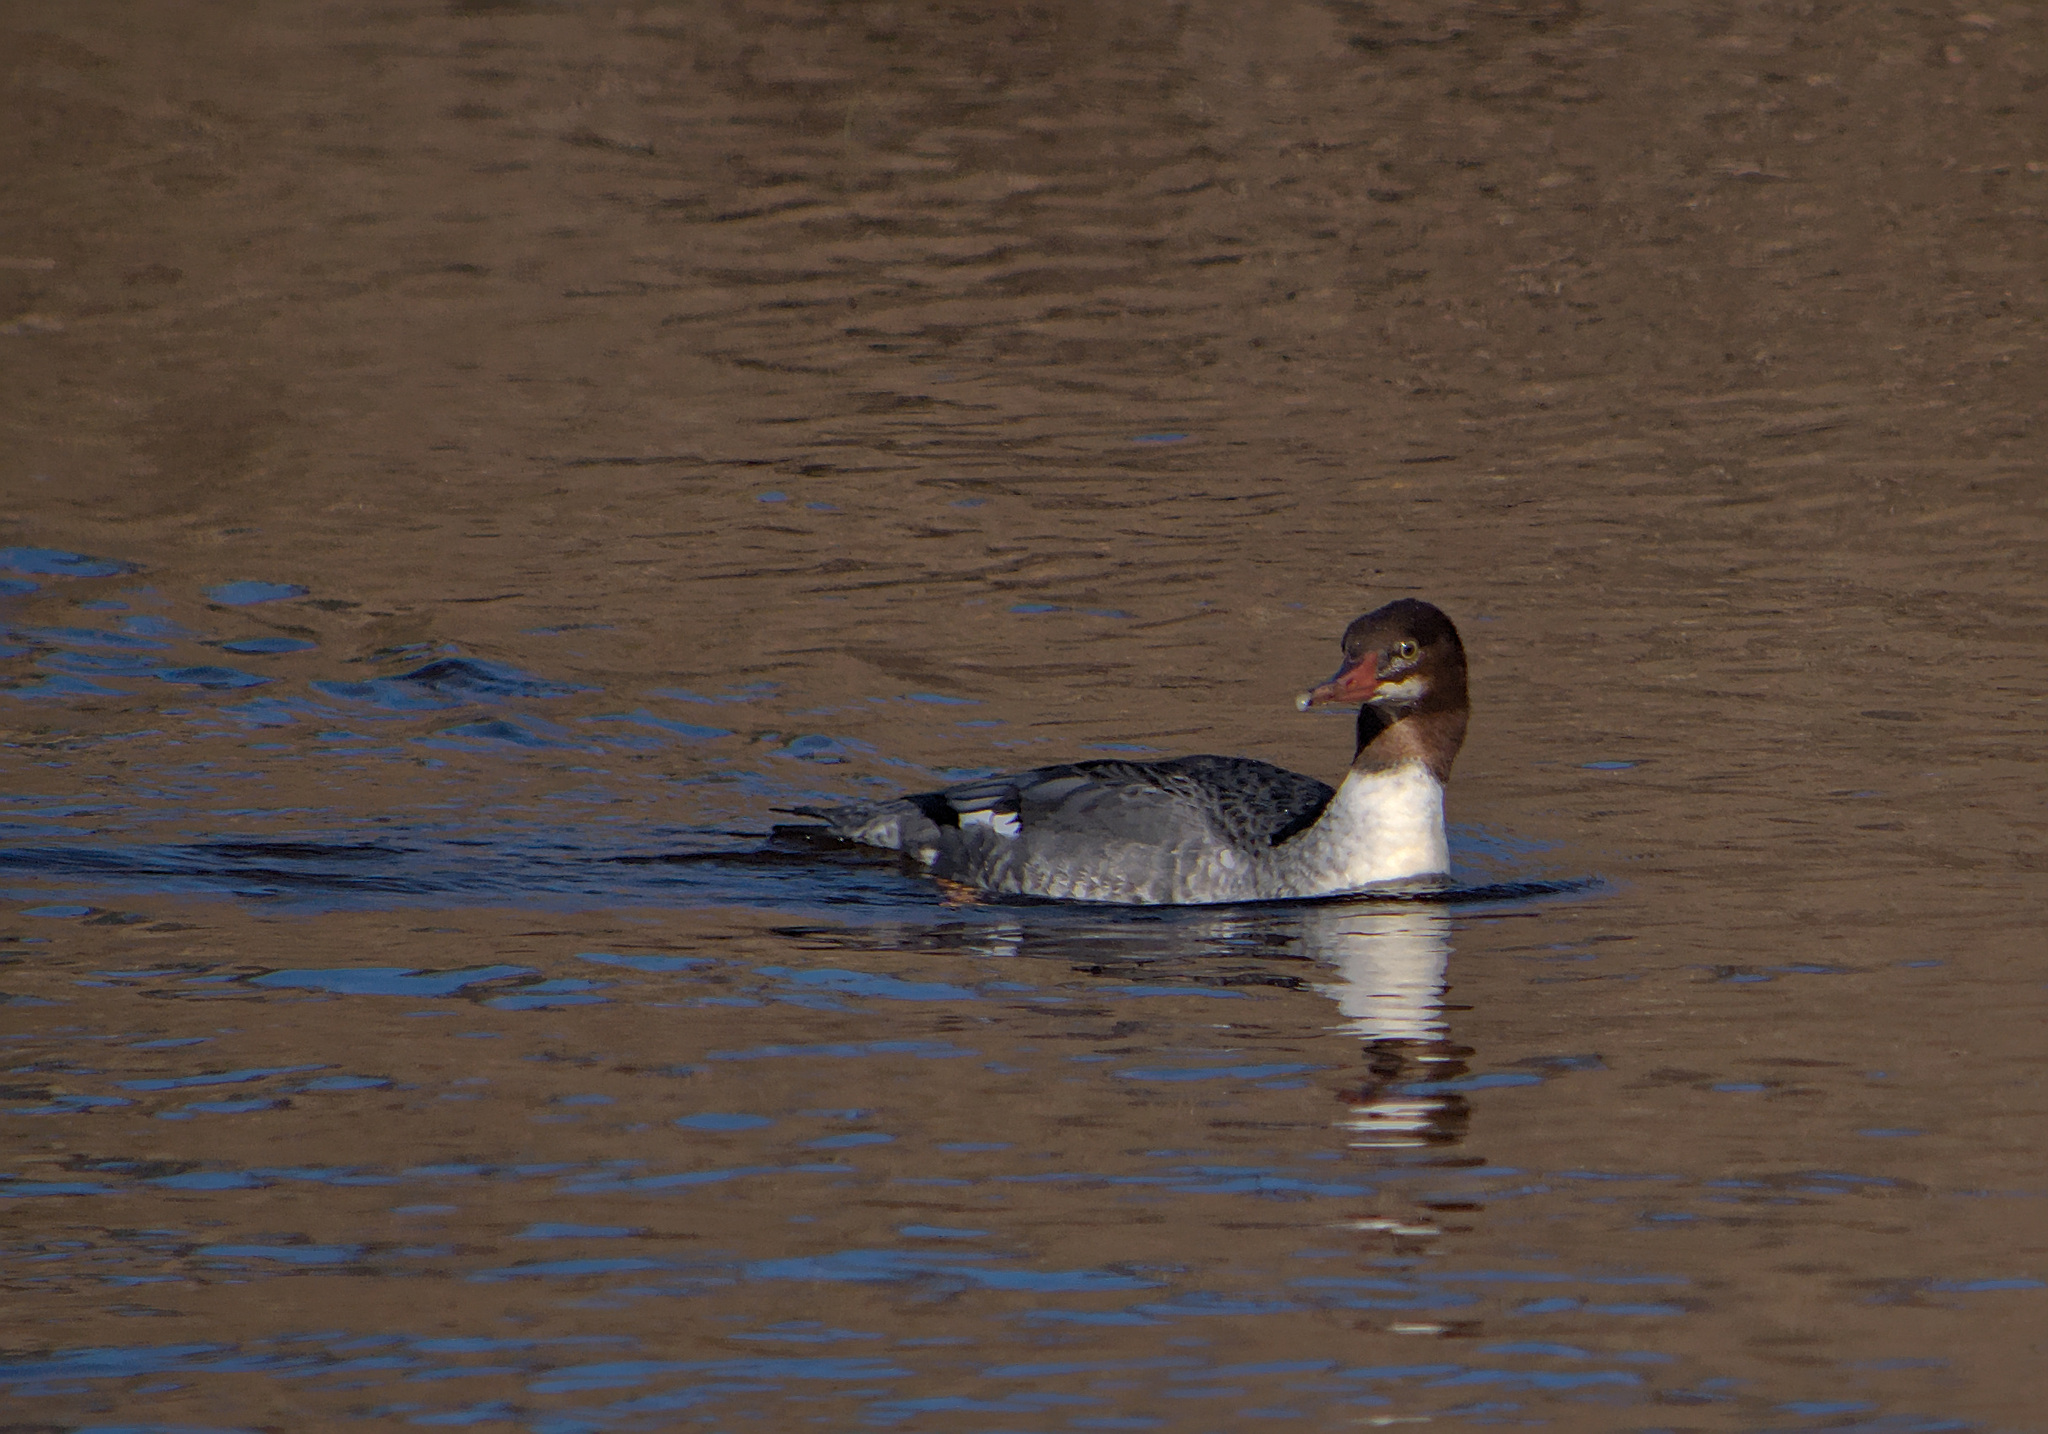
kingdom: Animalia
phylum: Chordata
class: Aves
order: Anseriformes
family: Anatidae
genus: Mergus
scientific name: Mergus merganser
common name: Common merganser
